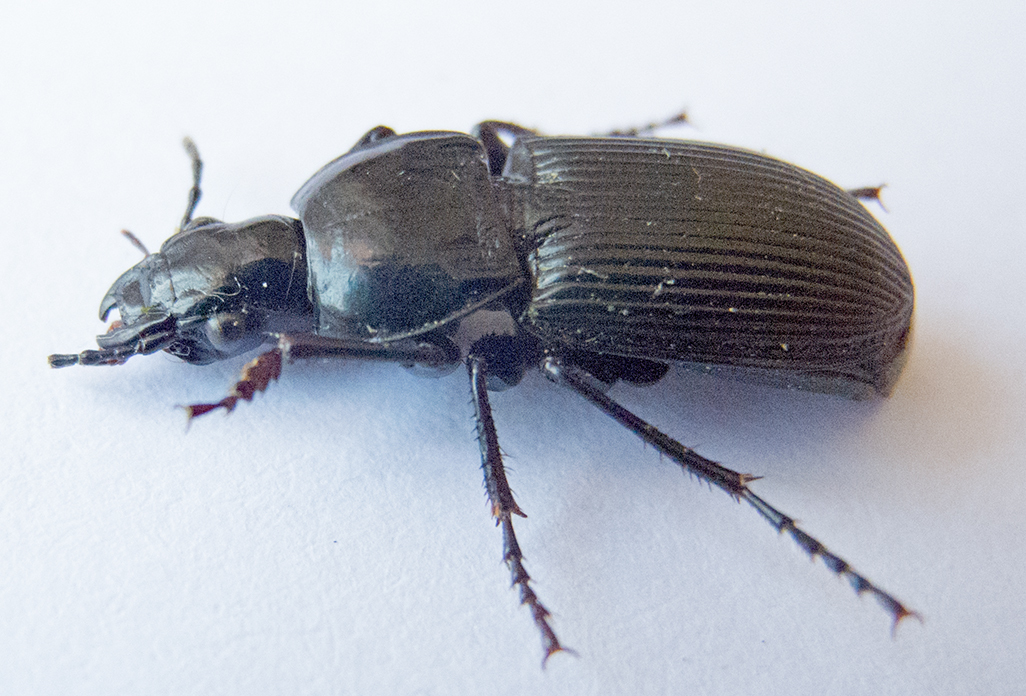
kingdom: Animalia
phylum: Arthropoda
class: Insecta
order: Coleoptera
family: Carabidae
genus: Pterostichus
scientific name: Pterostichus melas
